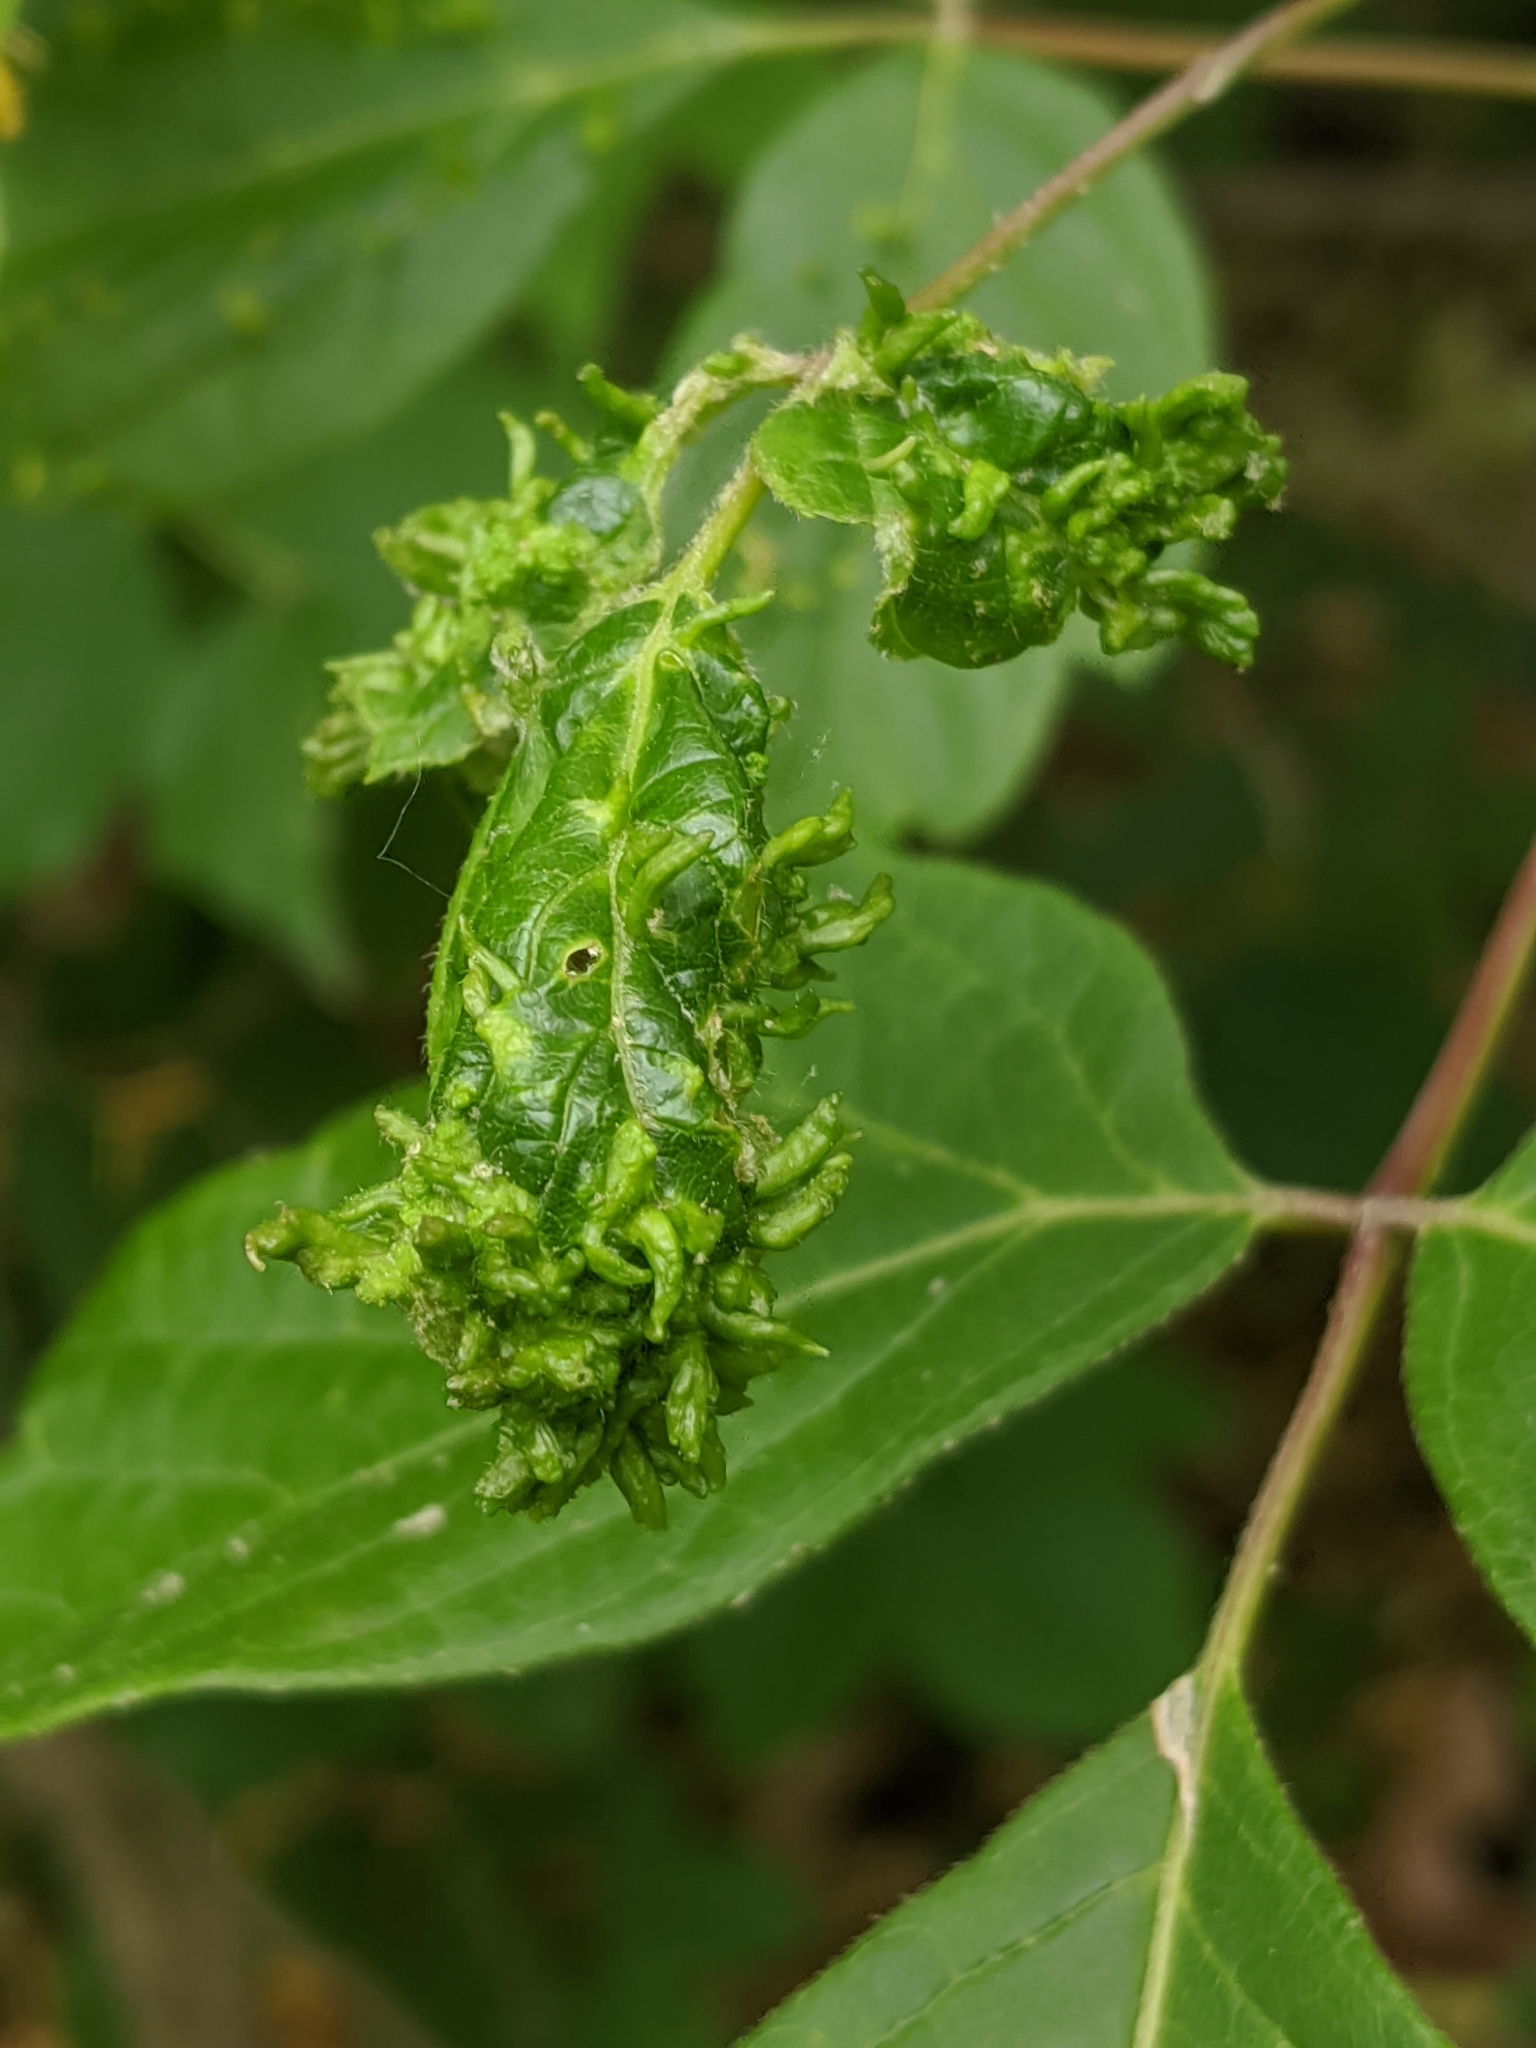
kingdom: Animalia
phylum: Arthropoda
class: Arachnida
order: Trombidiformes
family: Eriophyidae
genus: Aceria
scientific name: Aceria
